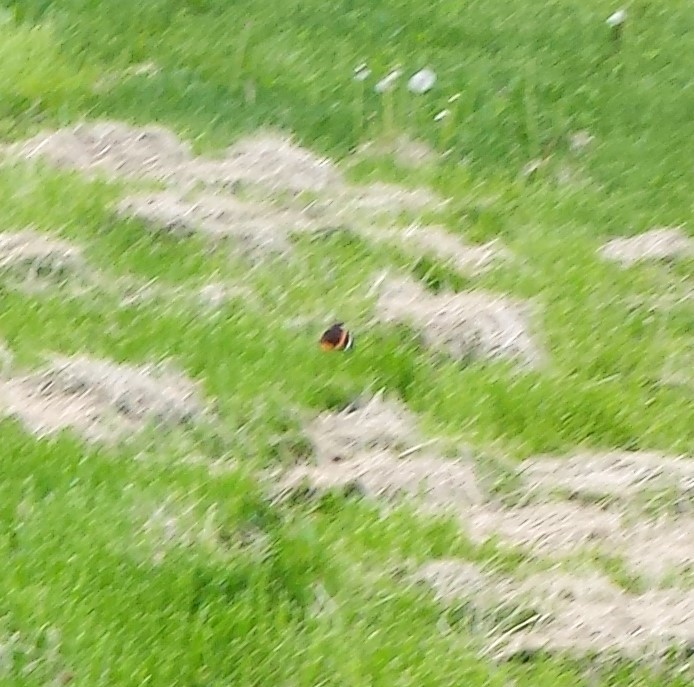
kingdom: Animalia
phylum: Arthropoda
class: Insecta
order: Lepidoptera
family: Nymphalidae
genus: Vanessa
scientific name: Vanessa atalanta
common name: Red admiral
